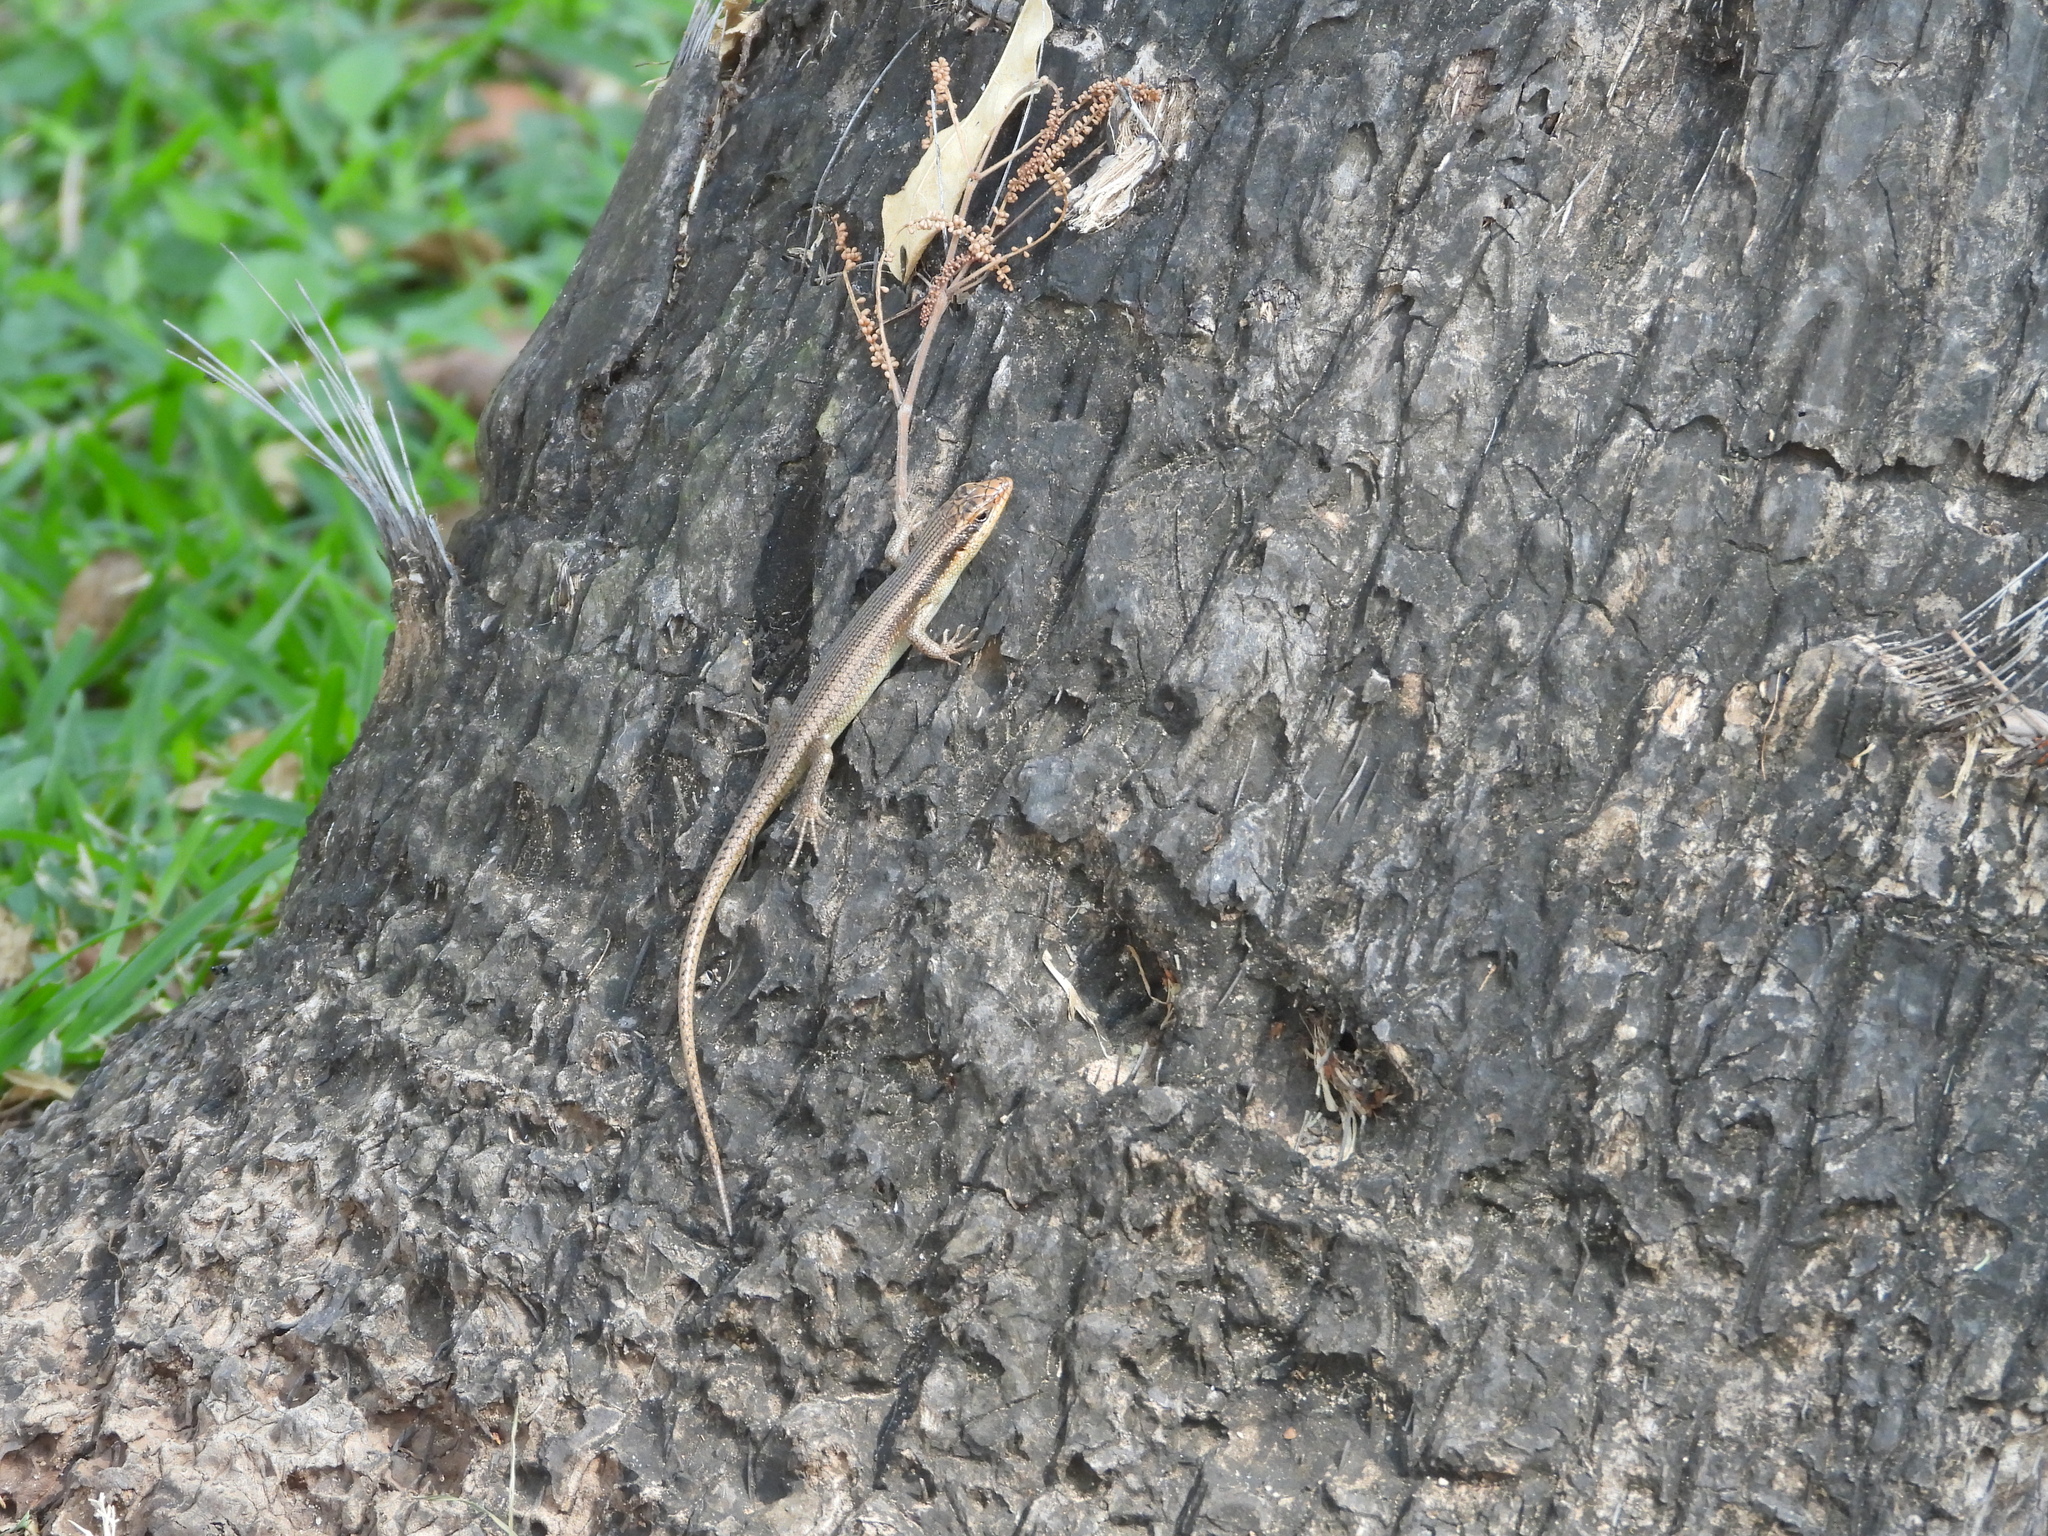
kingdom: Animalia
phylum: Chordata
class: Squamata
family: Scincidae
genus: Trachylepis
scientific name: Trachylepis wahlbergii
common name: Wahlberg’s striped skink
